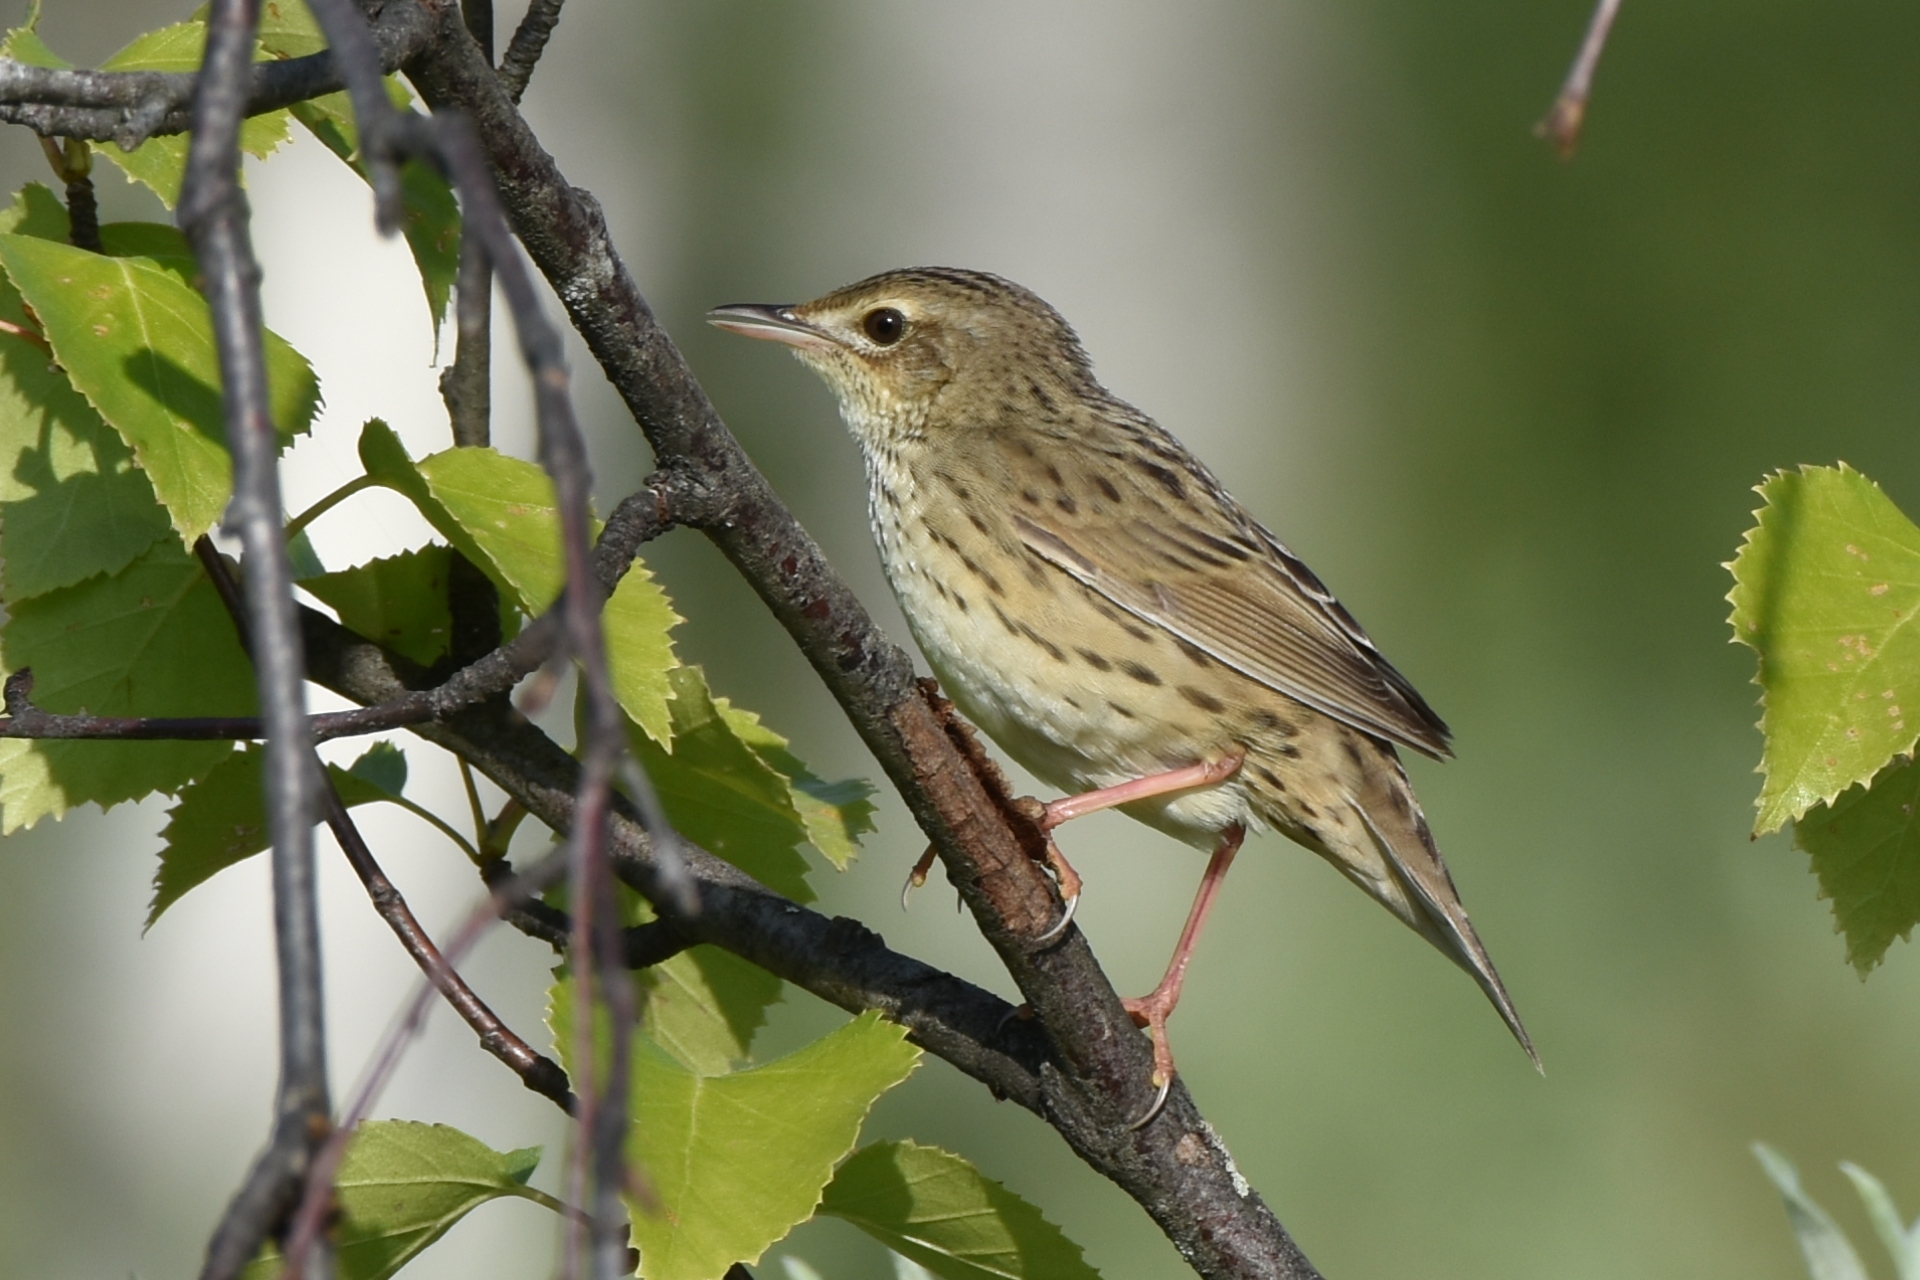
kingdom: Animalia
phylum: Chordata
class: Aves
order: Passeriformes
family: Locustellidae
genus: Locustella
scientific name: Locustella lanceolata
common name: Lanceolated warbler
